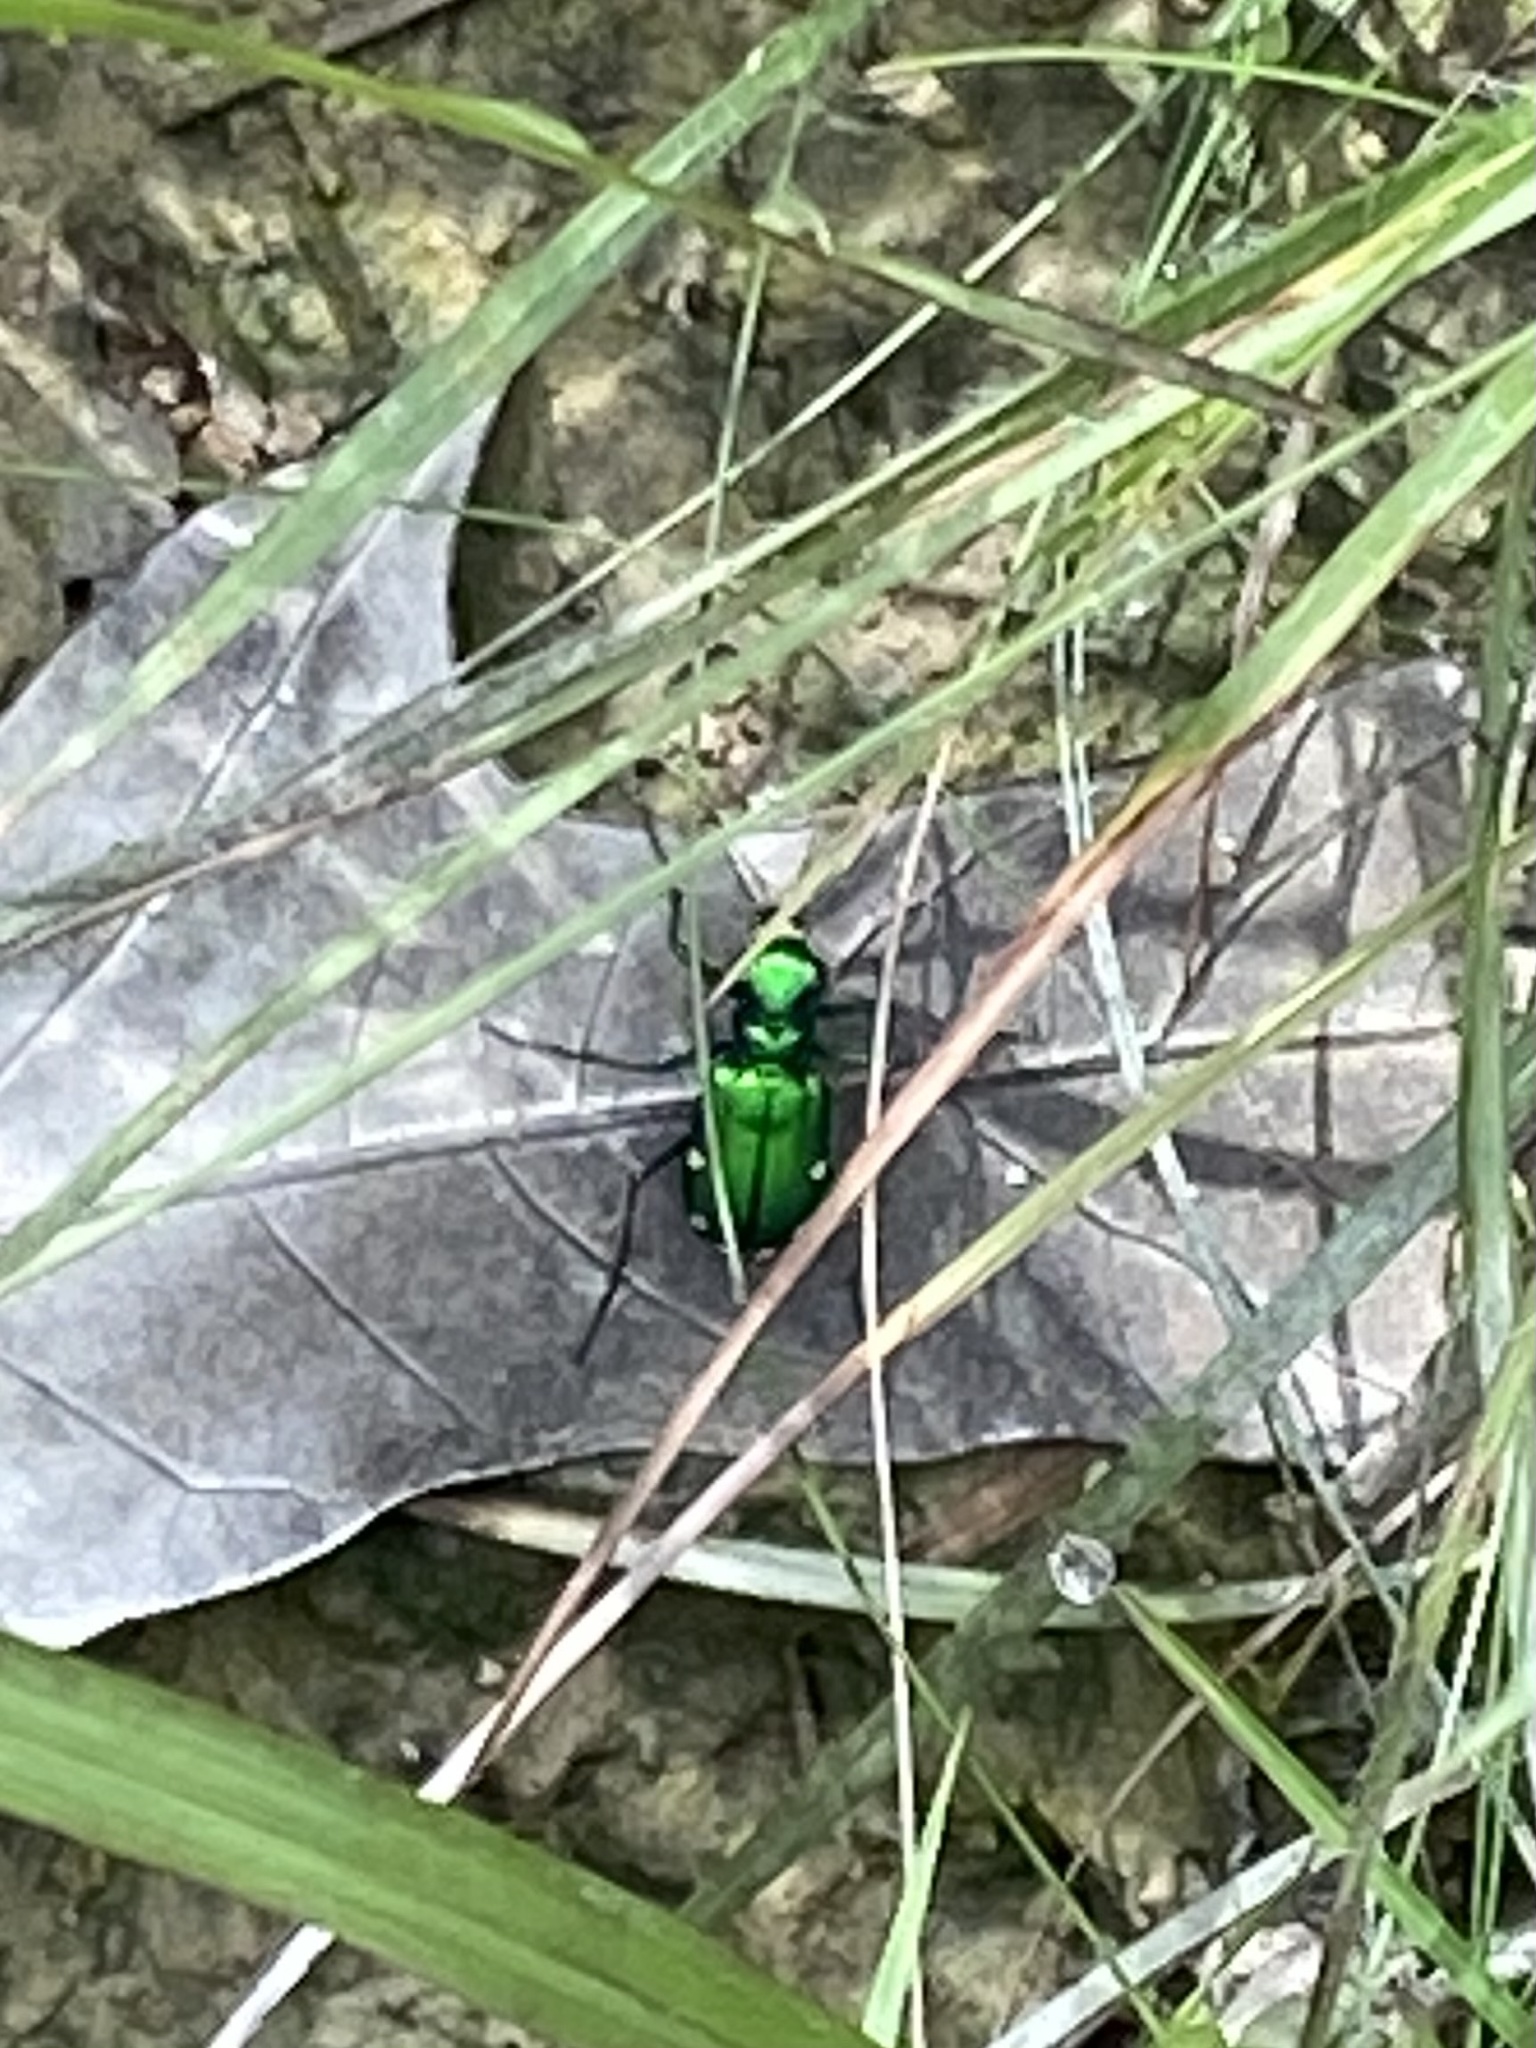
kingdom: Animalia
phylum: Arthropoda
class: Insecta
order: Coleoptera
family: Carabidae
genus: Cicindela
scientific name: Cicindela sexguttata
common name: Six-spotted tiger beetle
